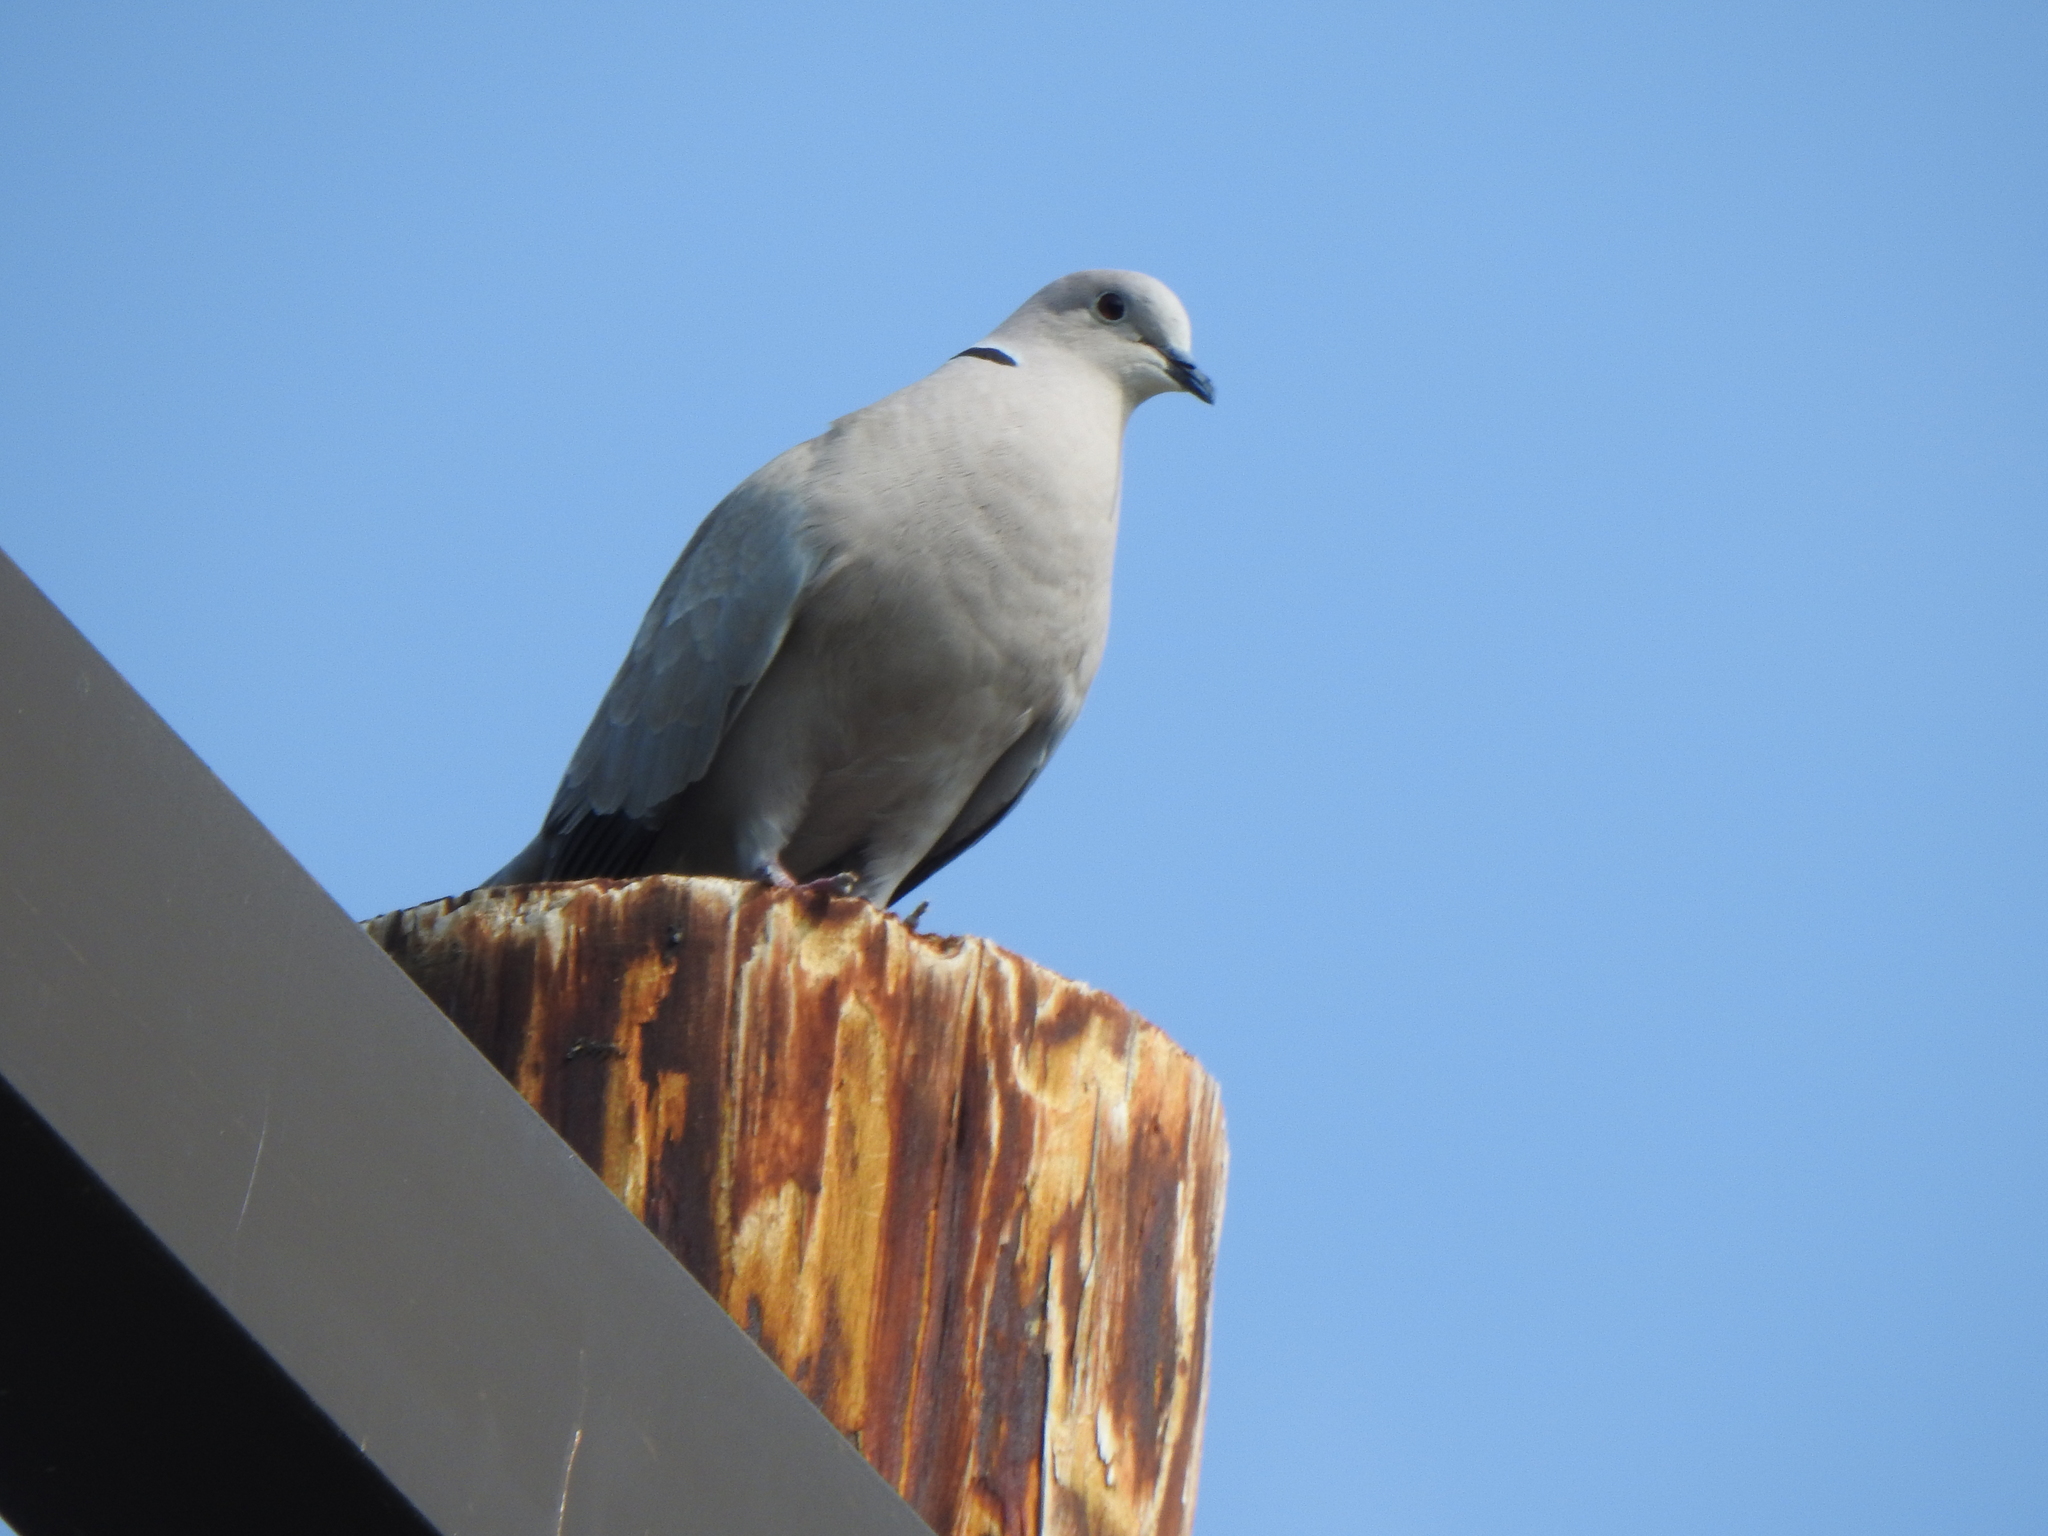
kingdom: Animalia
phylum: Chordata
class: Aves
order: Columbiformes
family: Columbidae
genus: Streptopelia
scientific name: Streptopelia decaocto
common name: Eurasian collared dove
